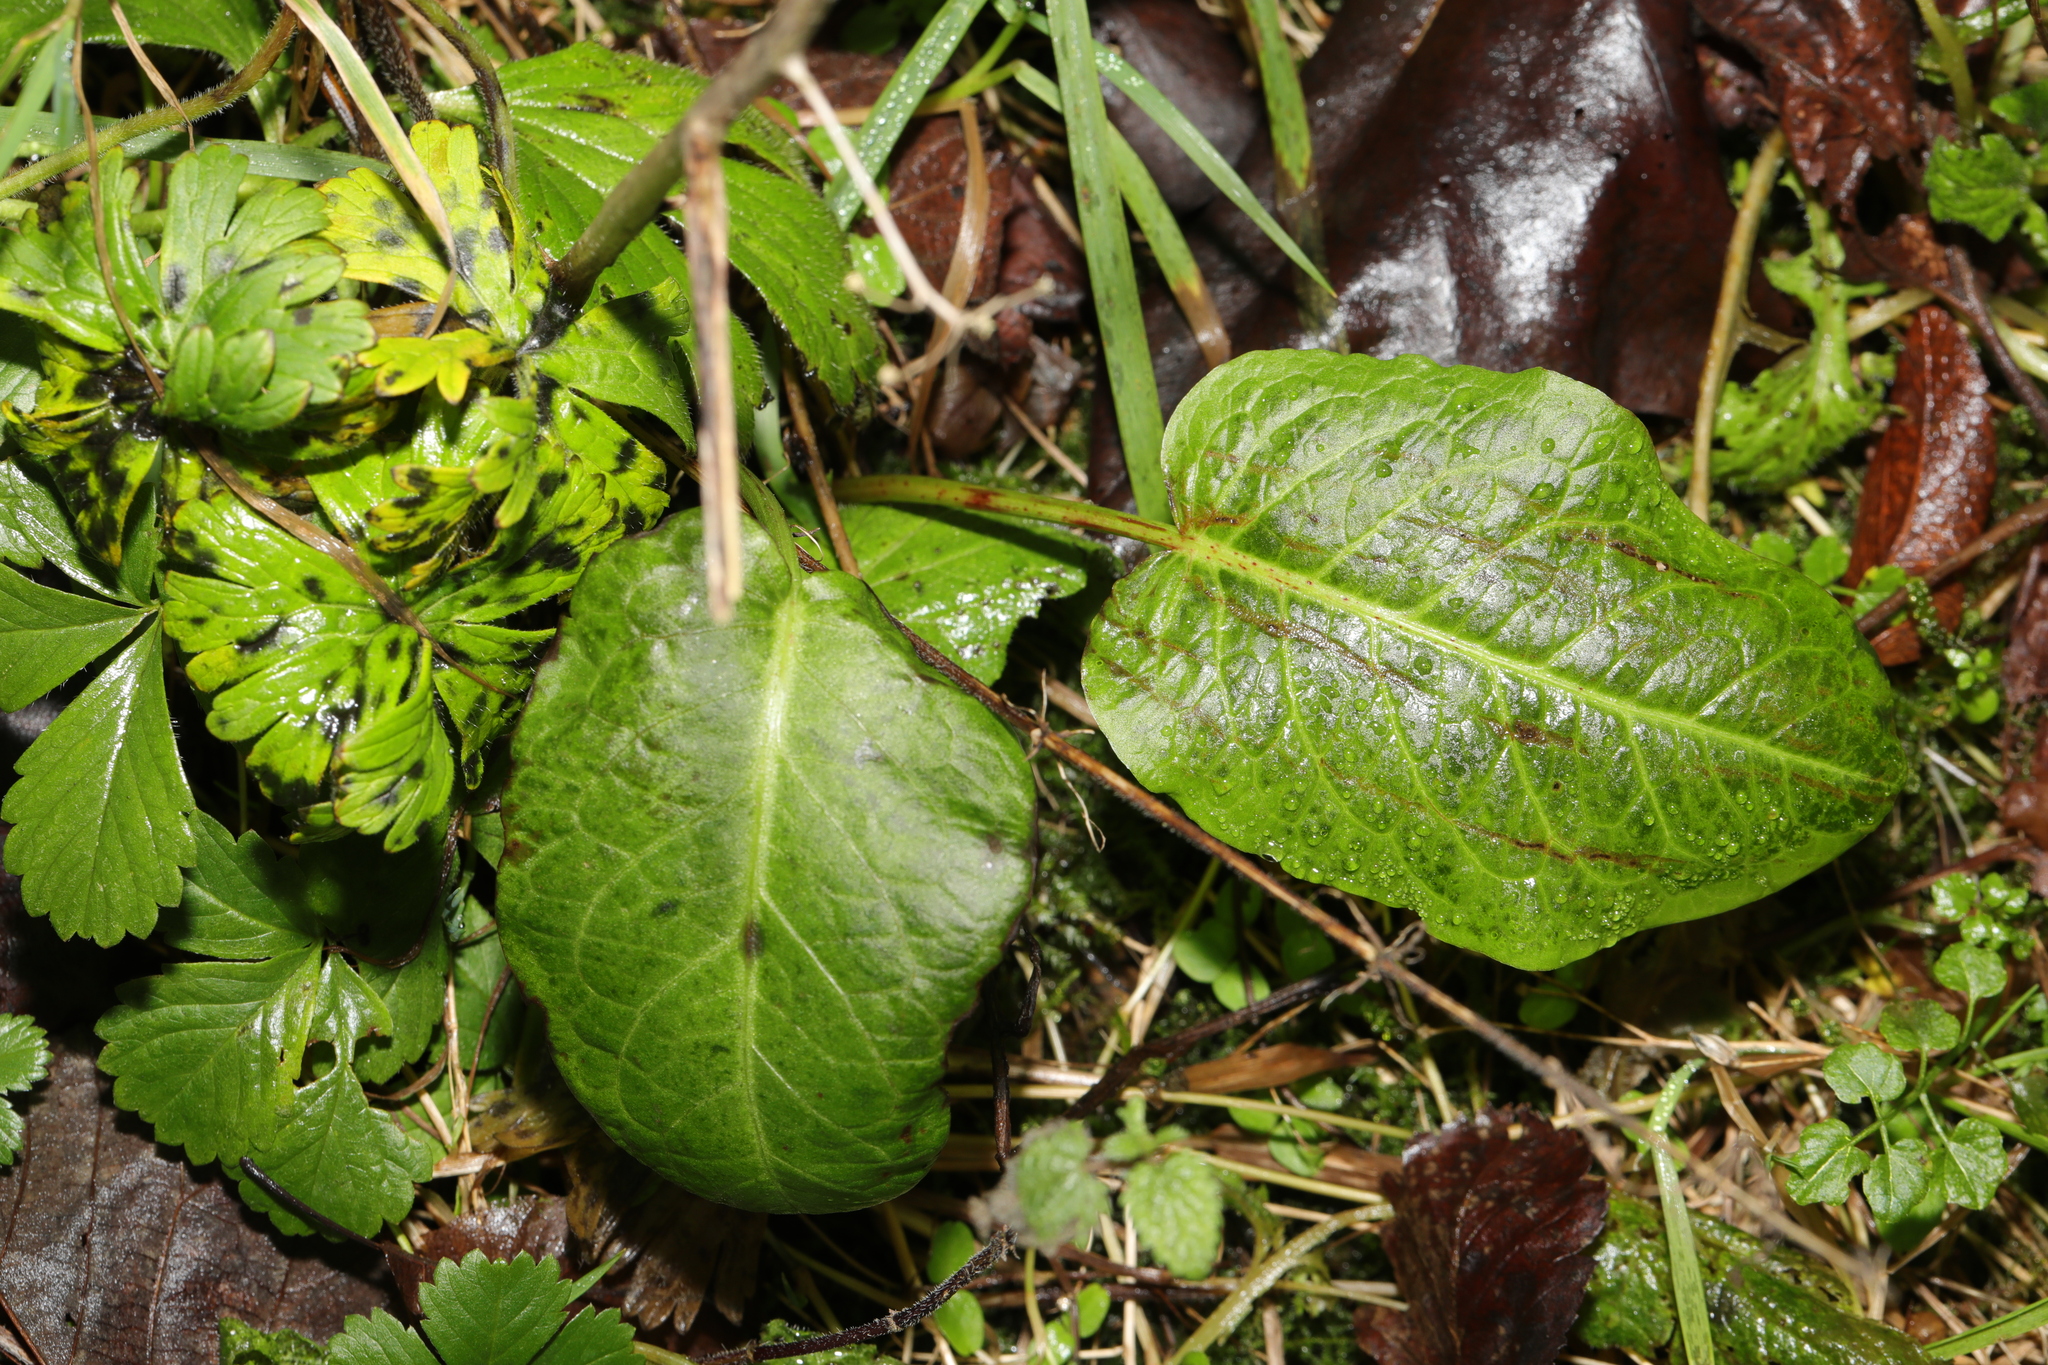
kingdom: Plantae
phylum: Tracheophyta
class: Magnoliopsida
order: Caryophyllales
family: Polygonaceae
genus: Rumex
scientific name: Rumex obtusifolius
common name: Bitter dock
